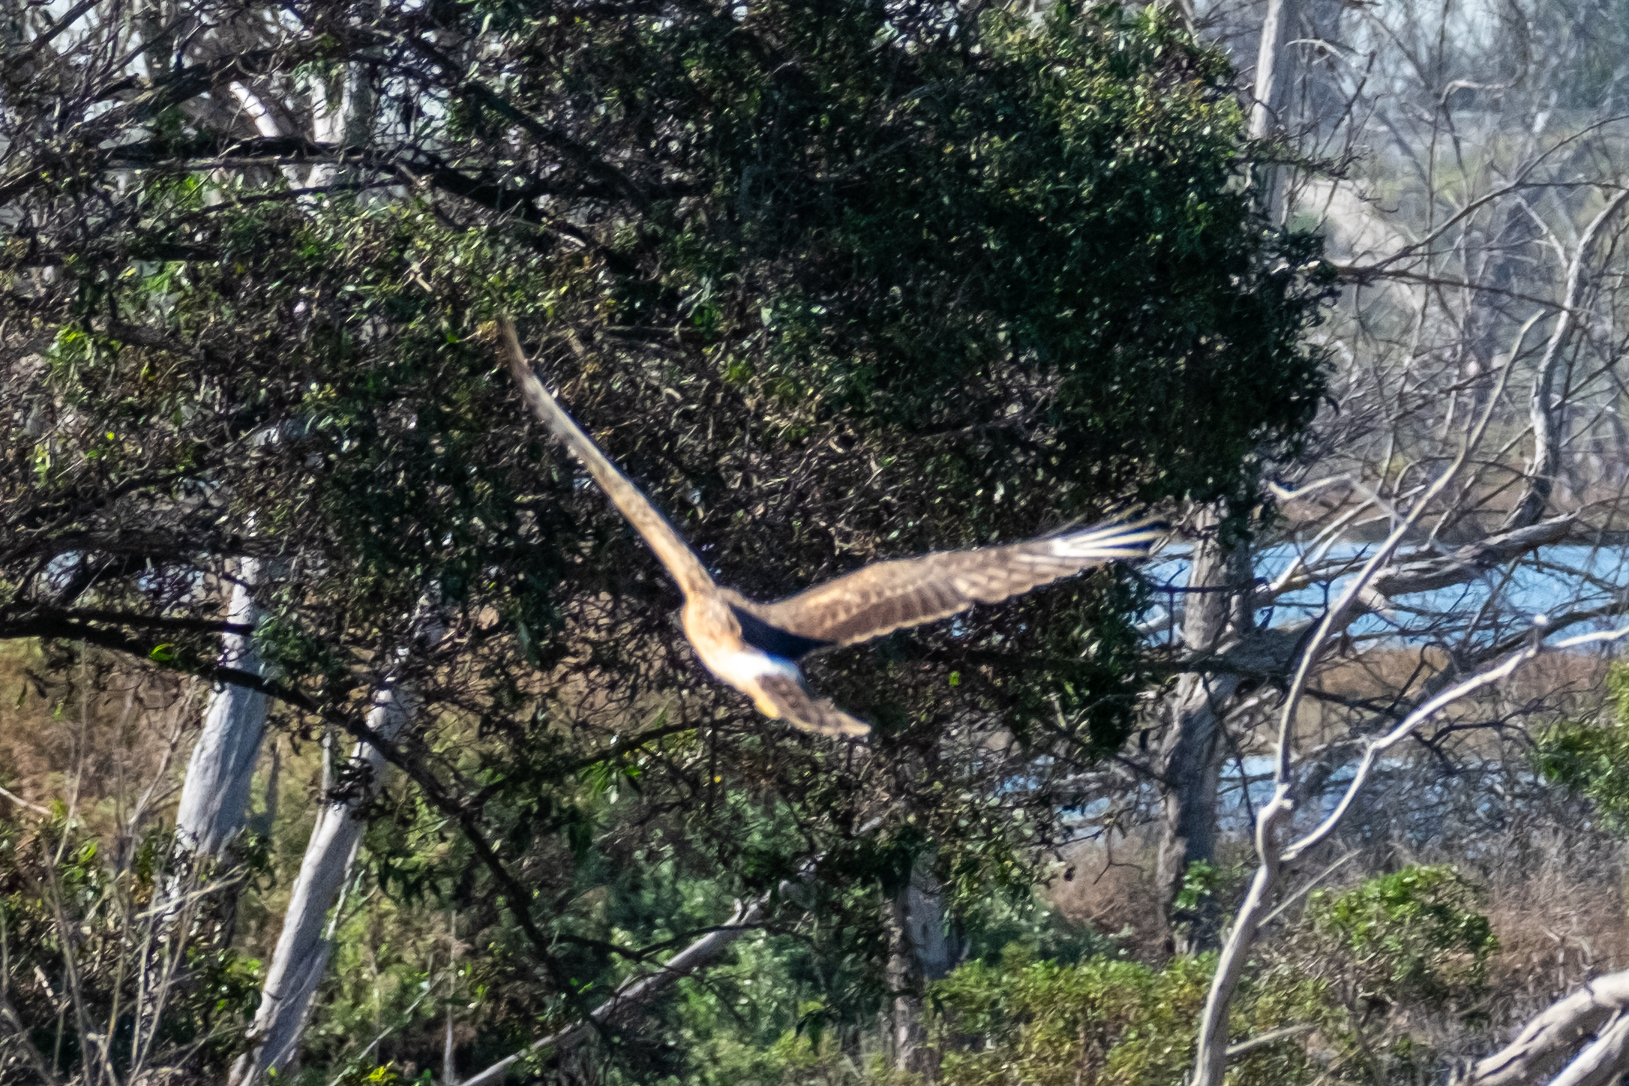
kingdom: Animalia
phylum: Chordata
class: Aves
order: Accipitriformes
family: Accipitridae
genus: Circus
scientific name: Circus cyaneus
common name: Hen harrier
